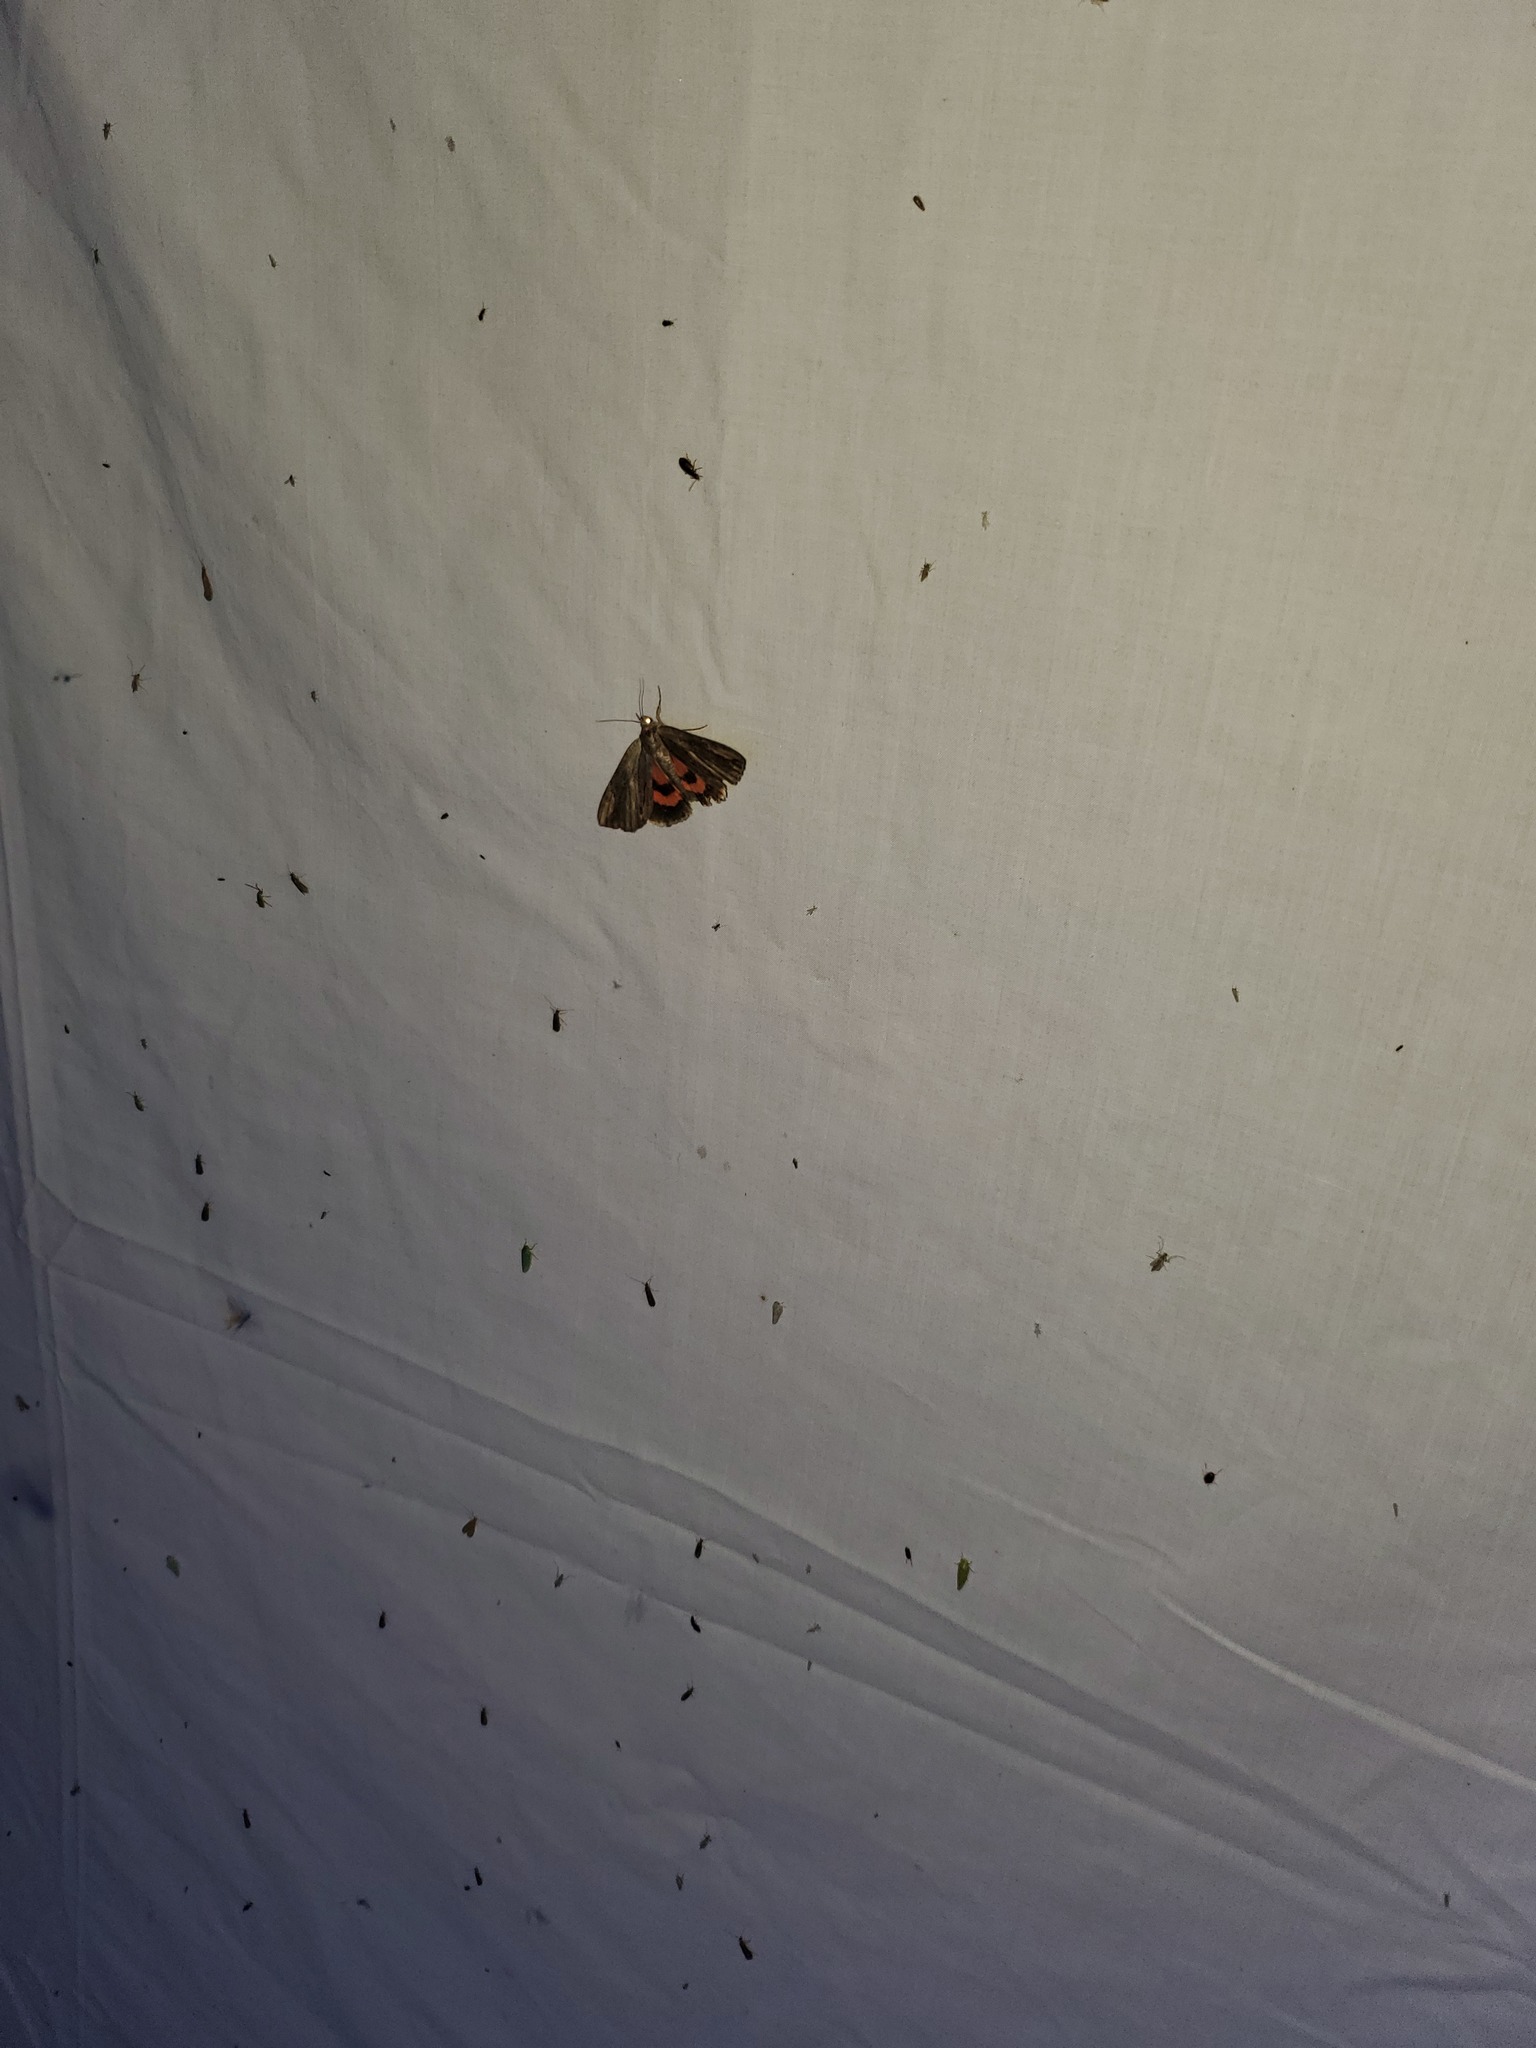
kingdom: Animalia
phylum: Arthropoda
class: Insecta
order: Lepidoptera
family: Erebidae
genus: Catocala
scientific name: Catocala ultronia
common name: Ultronia underwing
